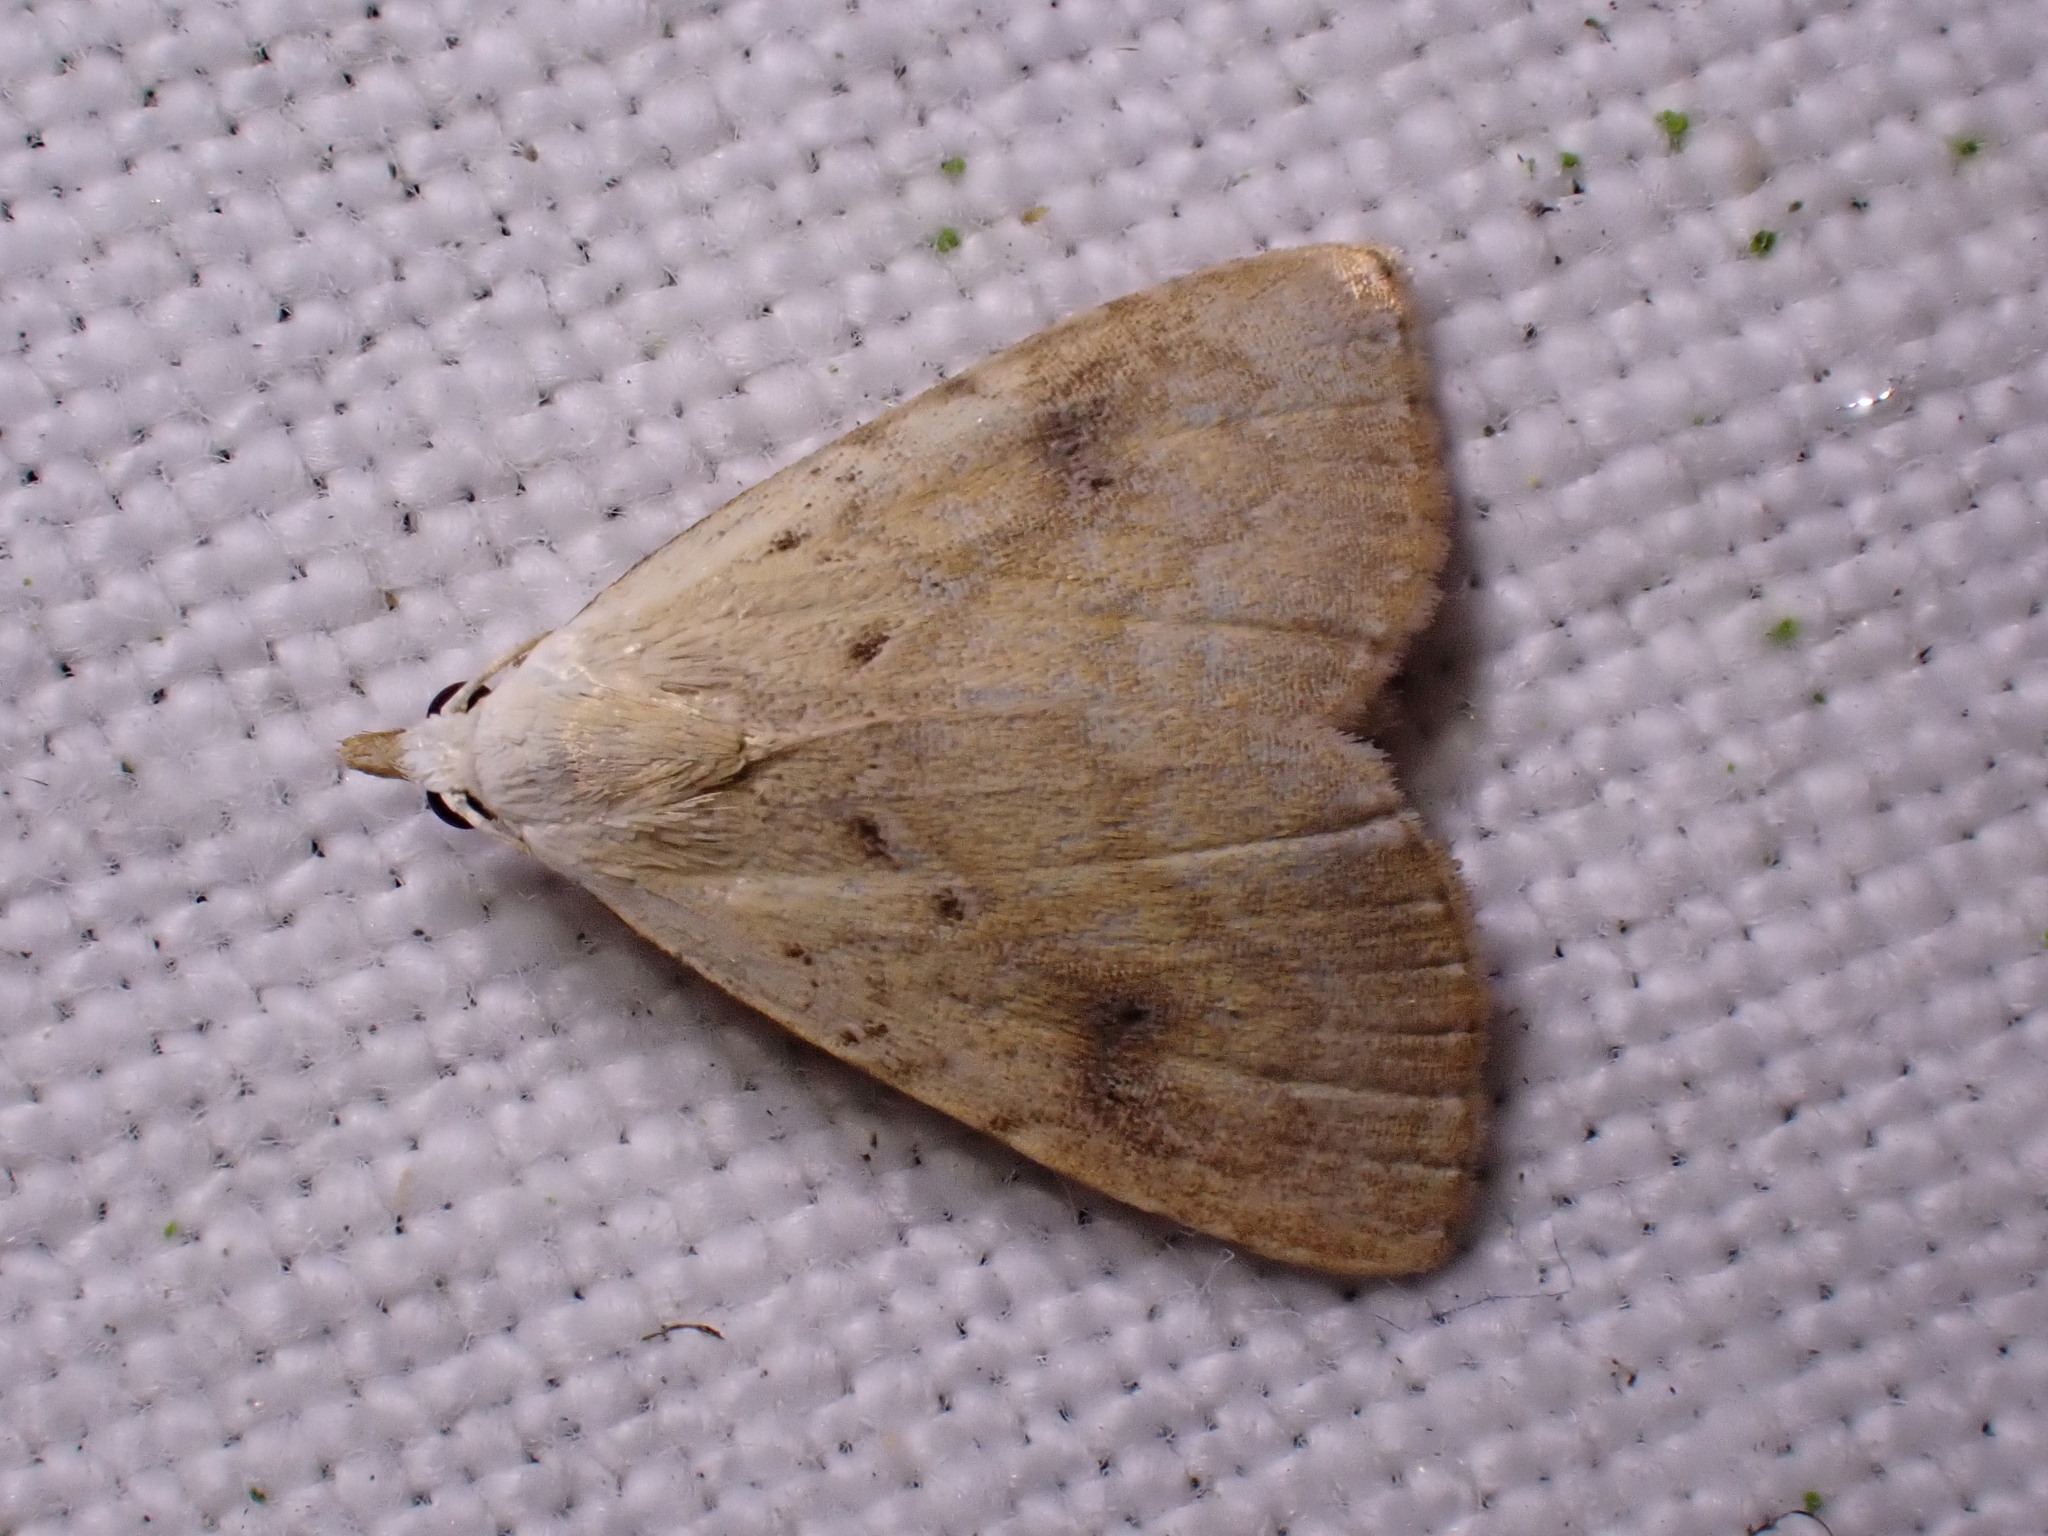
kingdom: Animalia
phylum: Arthropoda
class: Insecta
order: Lepidoptera
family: Erebidae
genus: Rivula
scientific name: Rivula sericealis
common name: Straw dot
